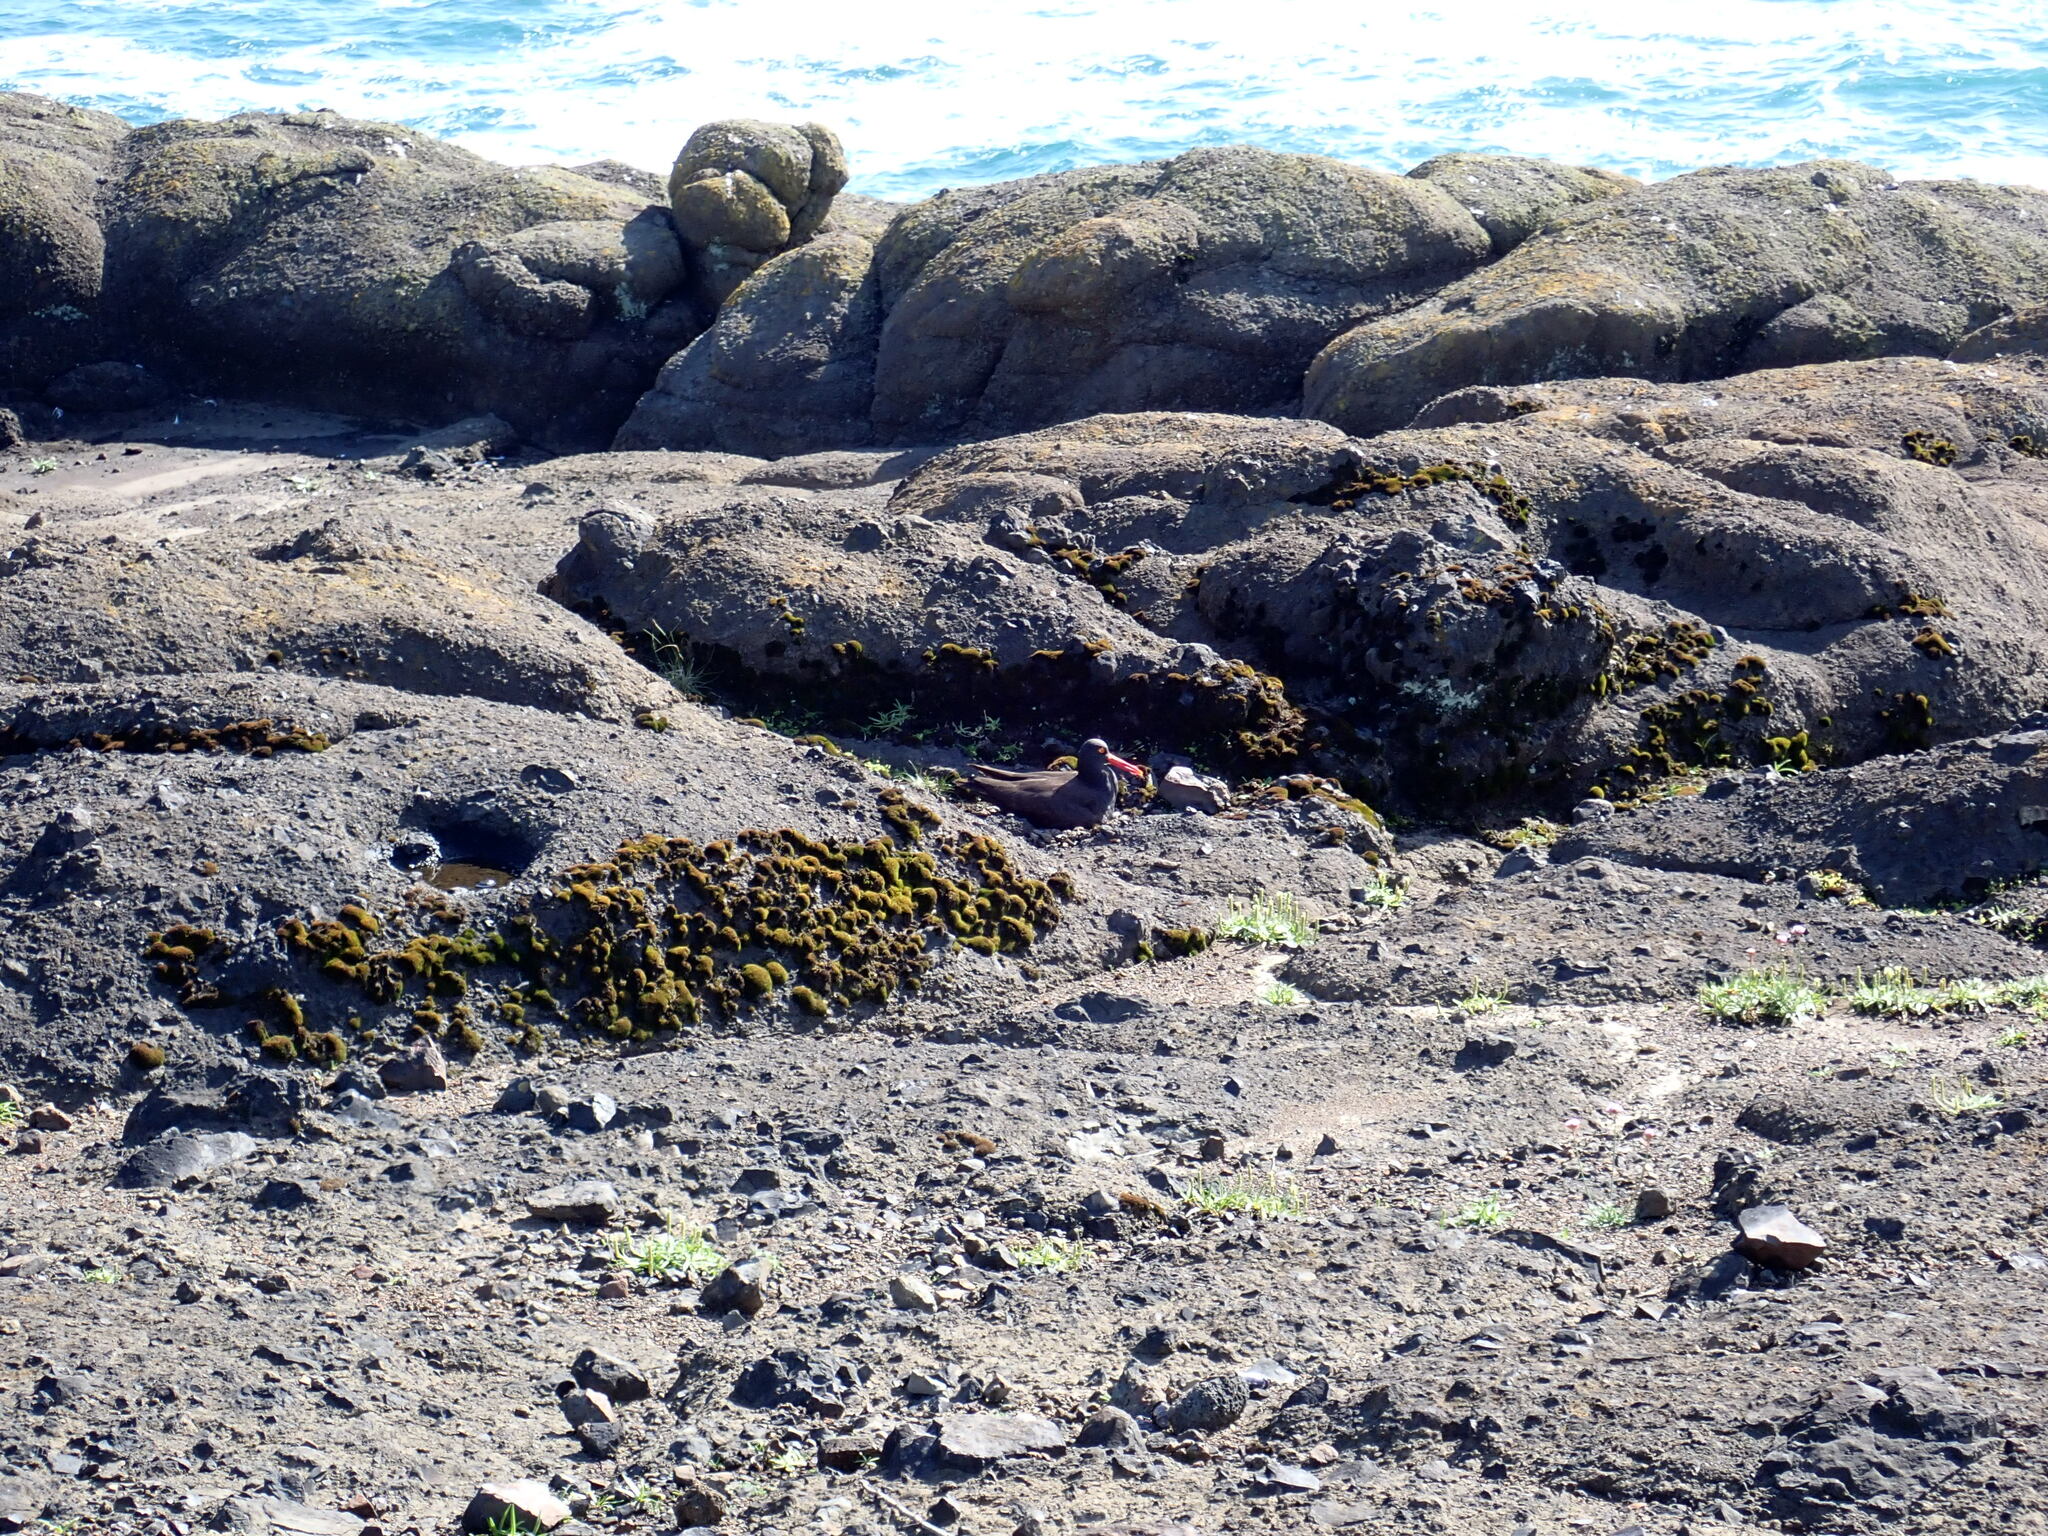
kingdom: Animalia
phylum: Chordata
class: Aves
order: Charadriiformes
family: Haematopodidae
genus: Haematopus
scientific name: Haematopus bachmani
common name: Black oystercatcher
